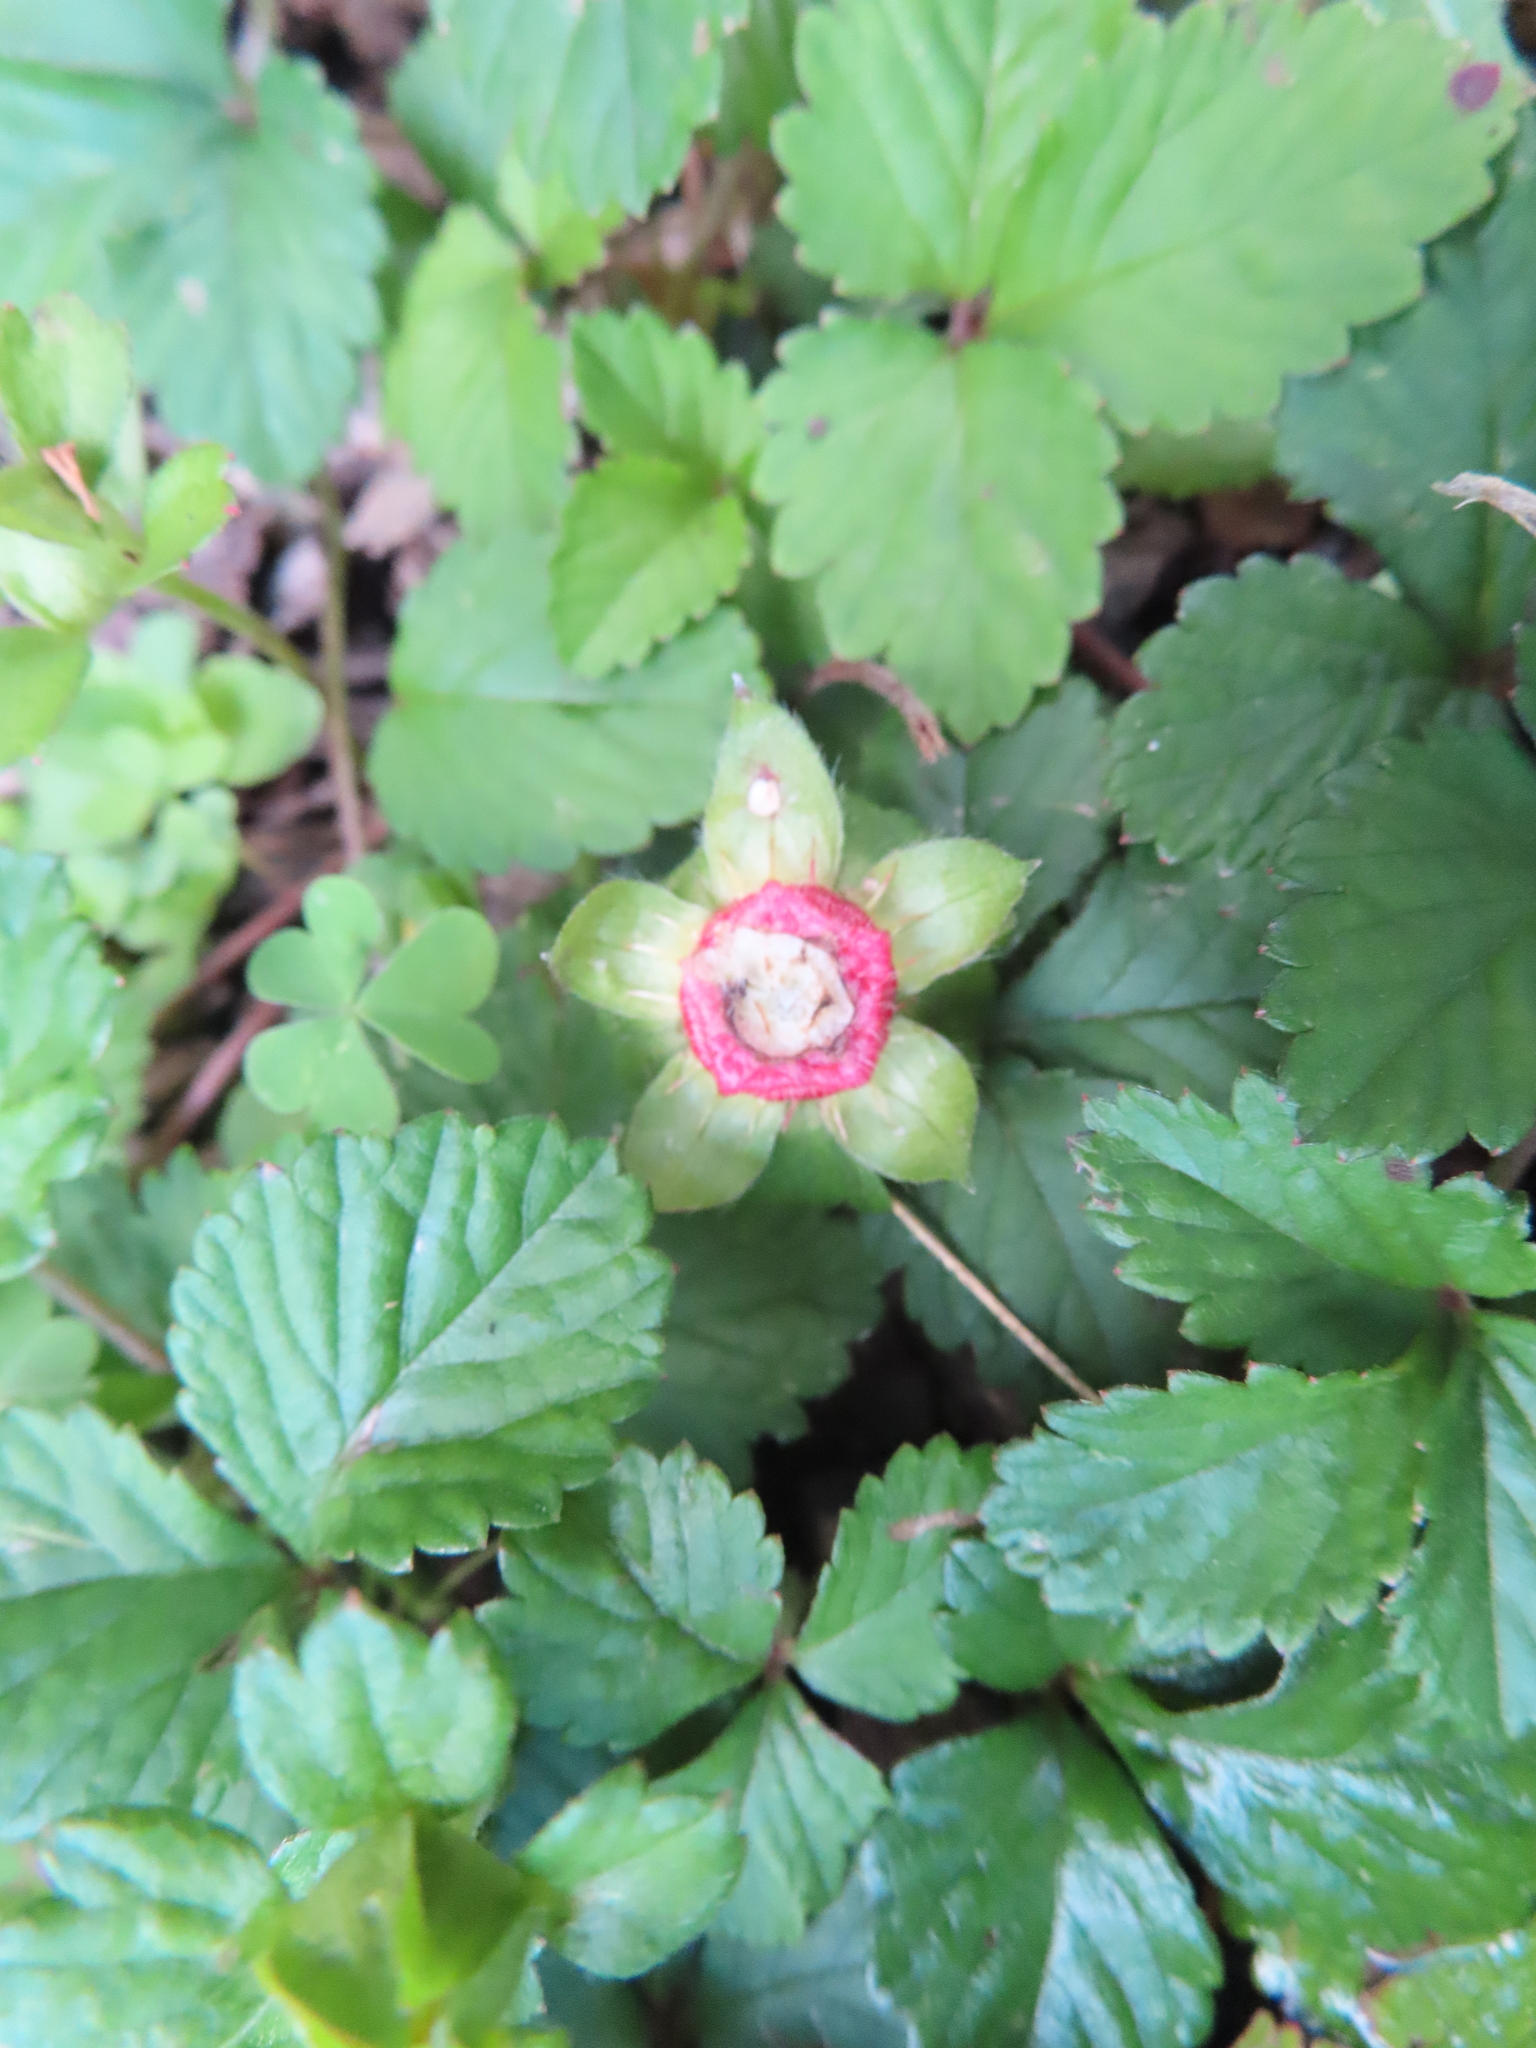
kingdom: Plantae
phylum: Tracheophyta
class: Magnoliopsida
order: Rosales
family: Rosaceae
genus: Potentilla
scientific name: Potentilla indica
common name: Yellow-flowered strawberry
